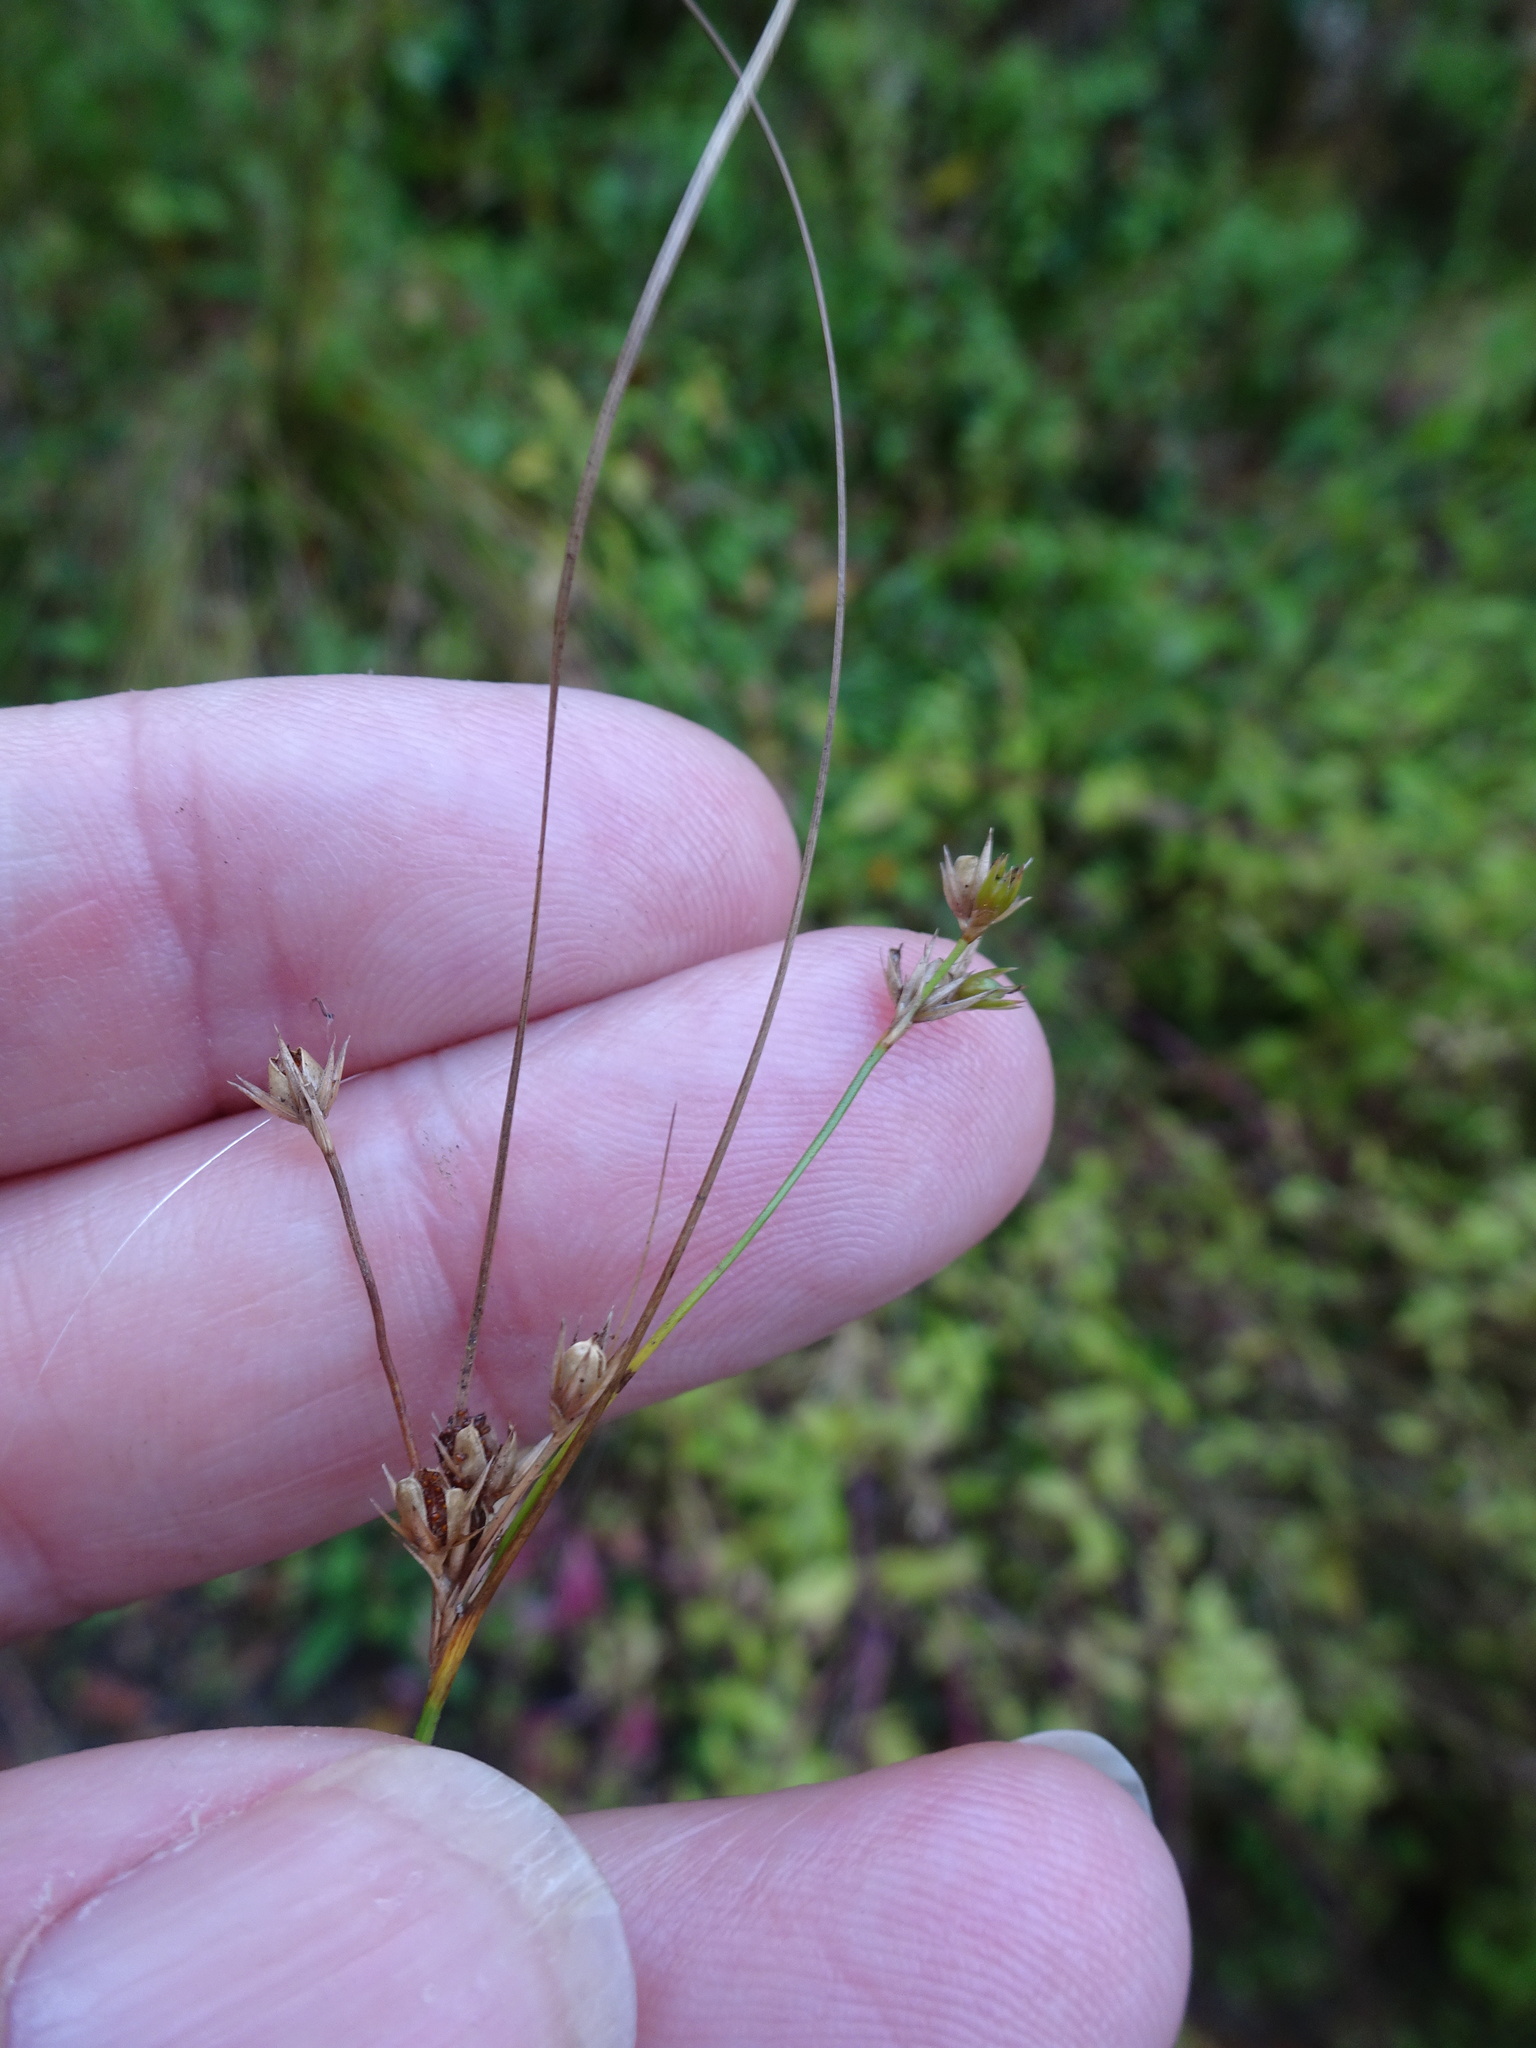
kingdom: Plantae
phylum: Tracheophyta
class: Liliopsida
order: Poales
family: Juncaceae
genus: Juncus
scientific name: Juncus tenuis
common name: Slender rush
